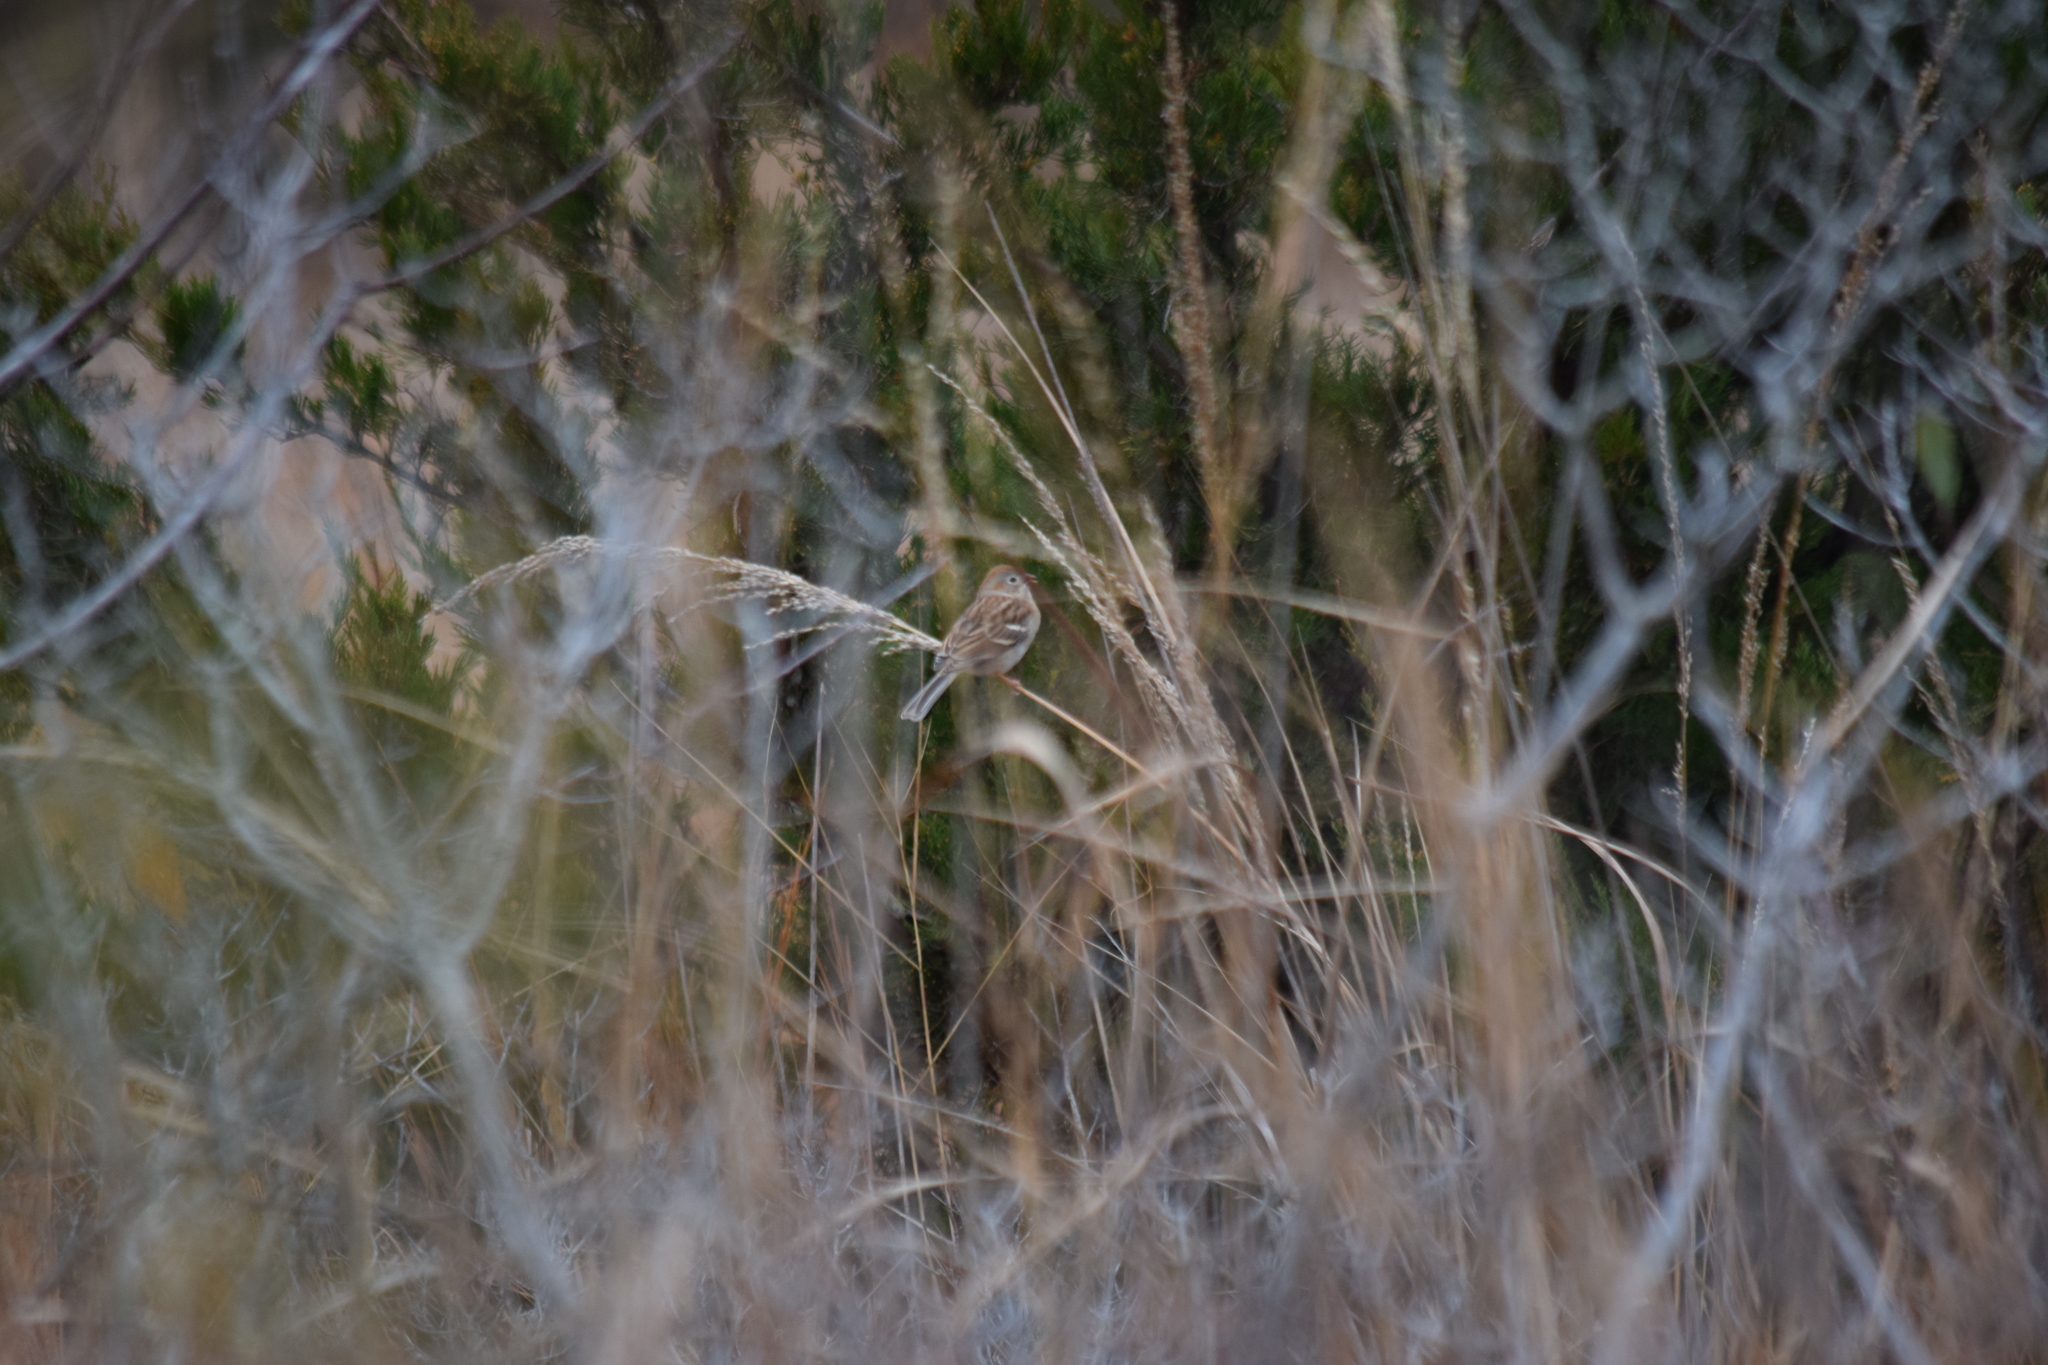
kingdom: Animalia
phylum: Chordata
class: Aves
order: Passeriformes
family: Passerellidae
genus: Spizella
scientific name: Spizella pusilla
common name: Field sparrow
